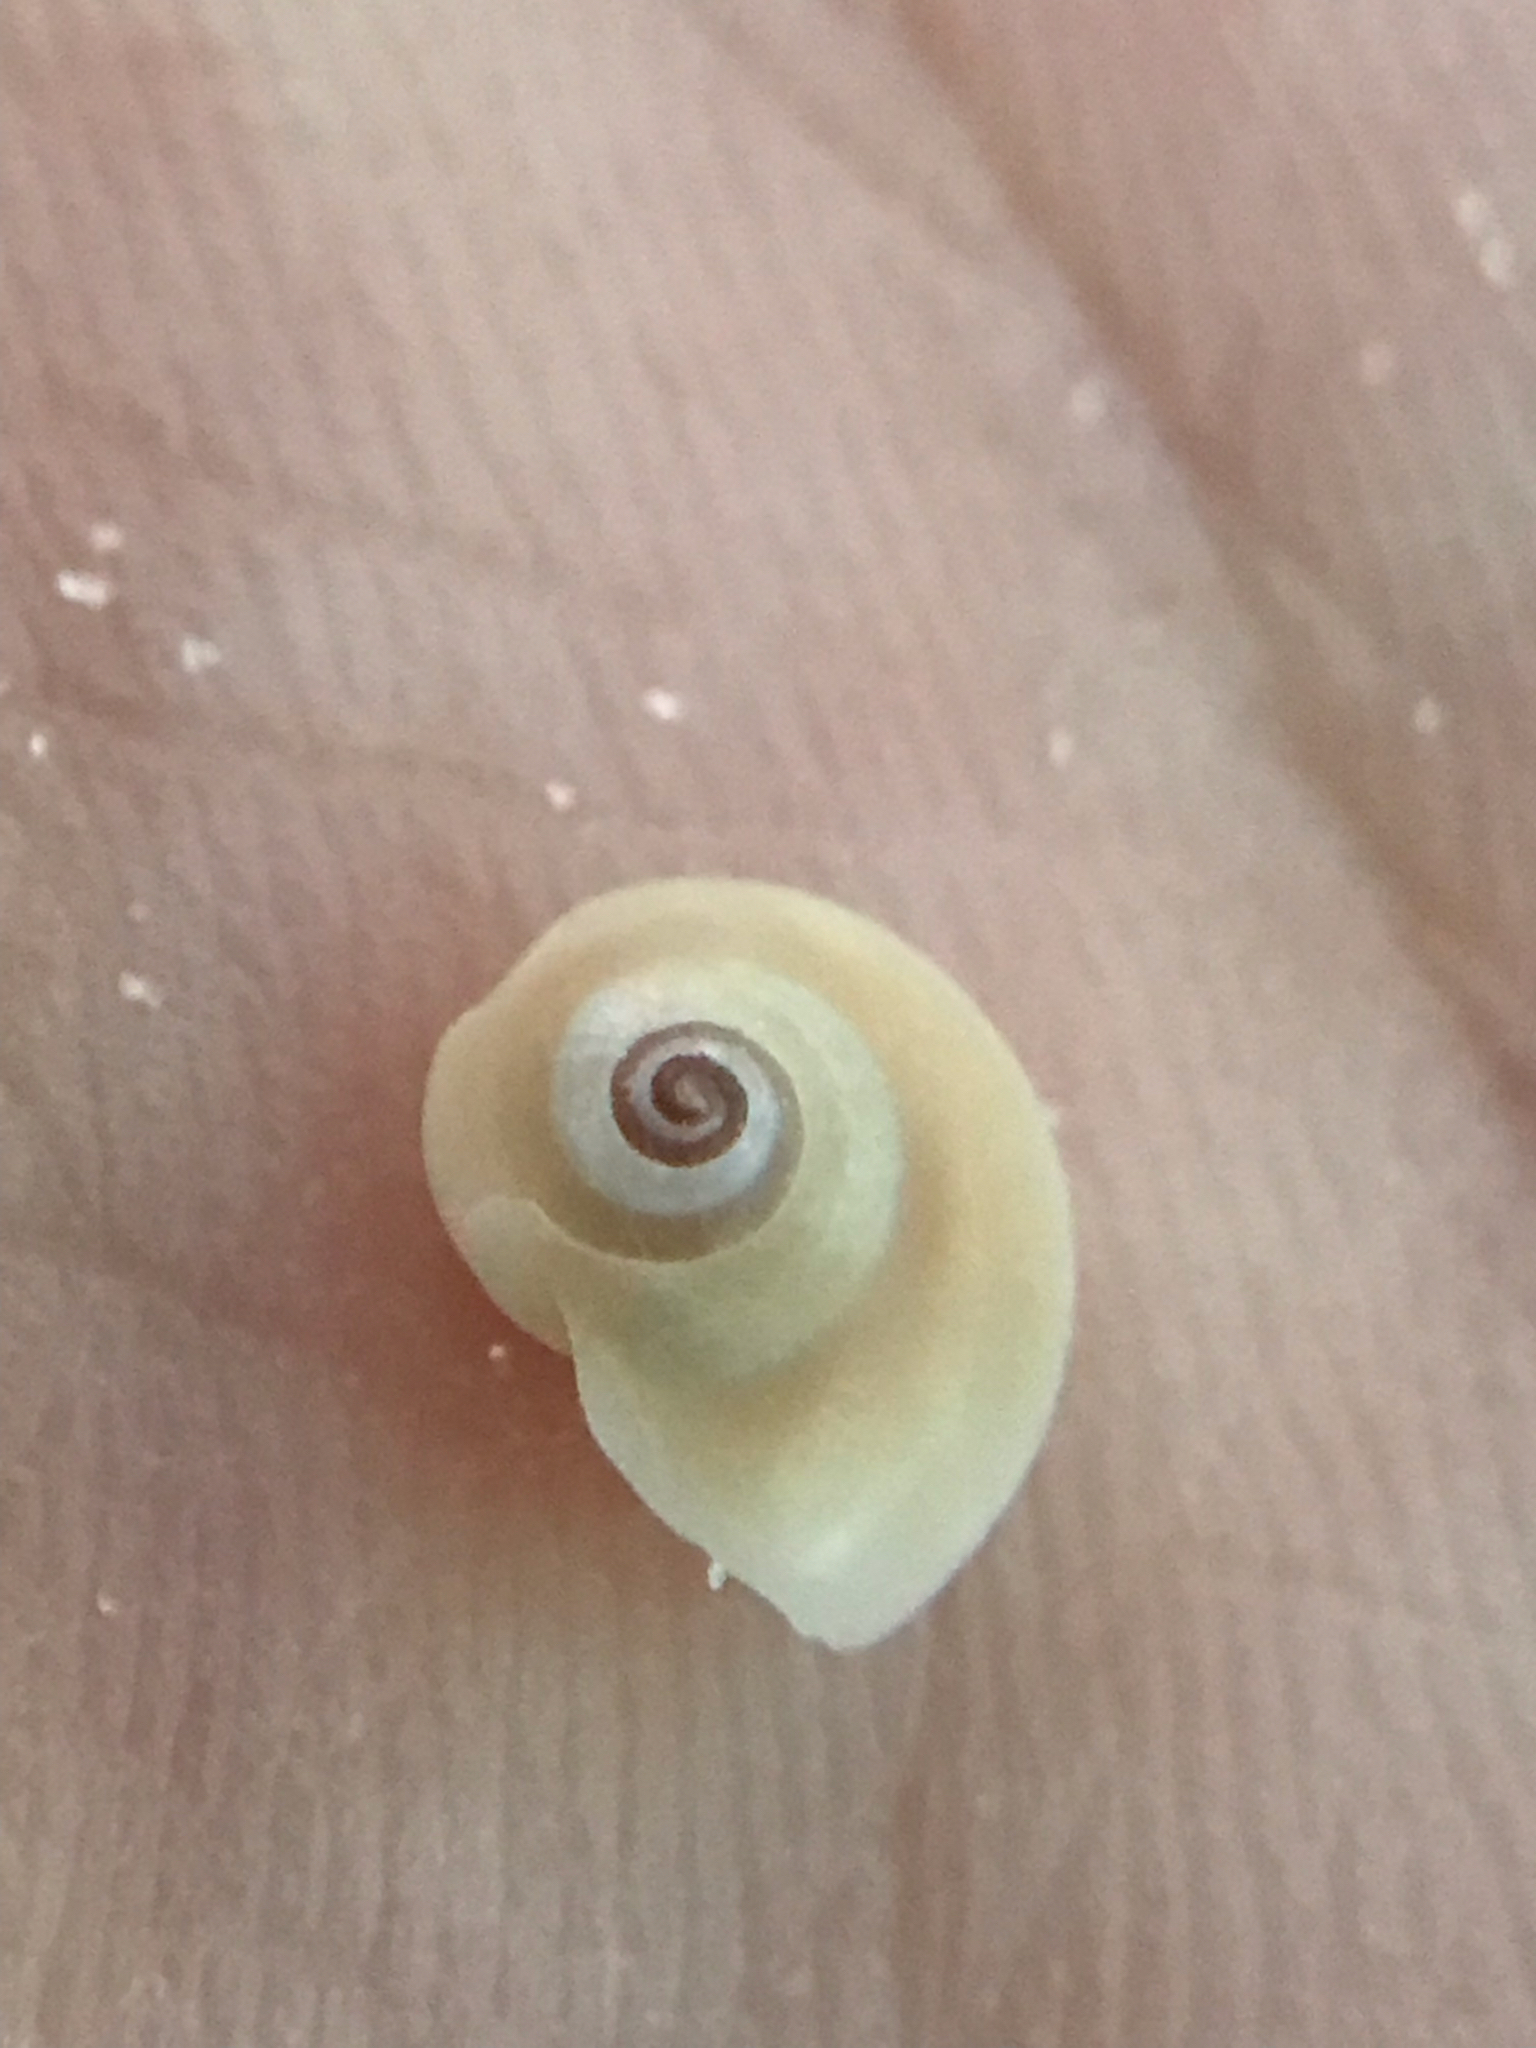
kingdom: Animalia
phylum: Mollusca
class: Gastropoda
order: Littorinimorpha
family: Naticidae
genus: Neverita
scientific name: Neverita duplicata
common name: Lobed moonsnail
